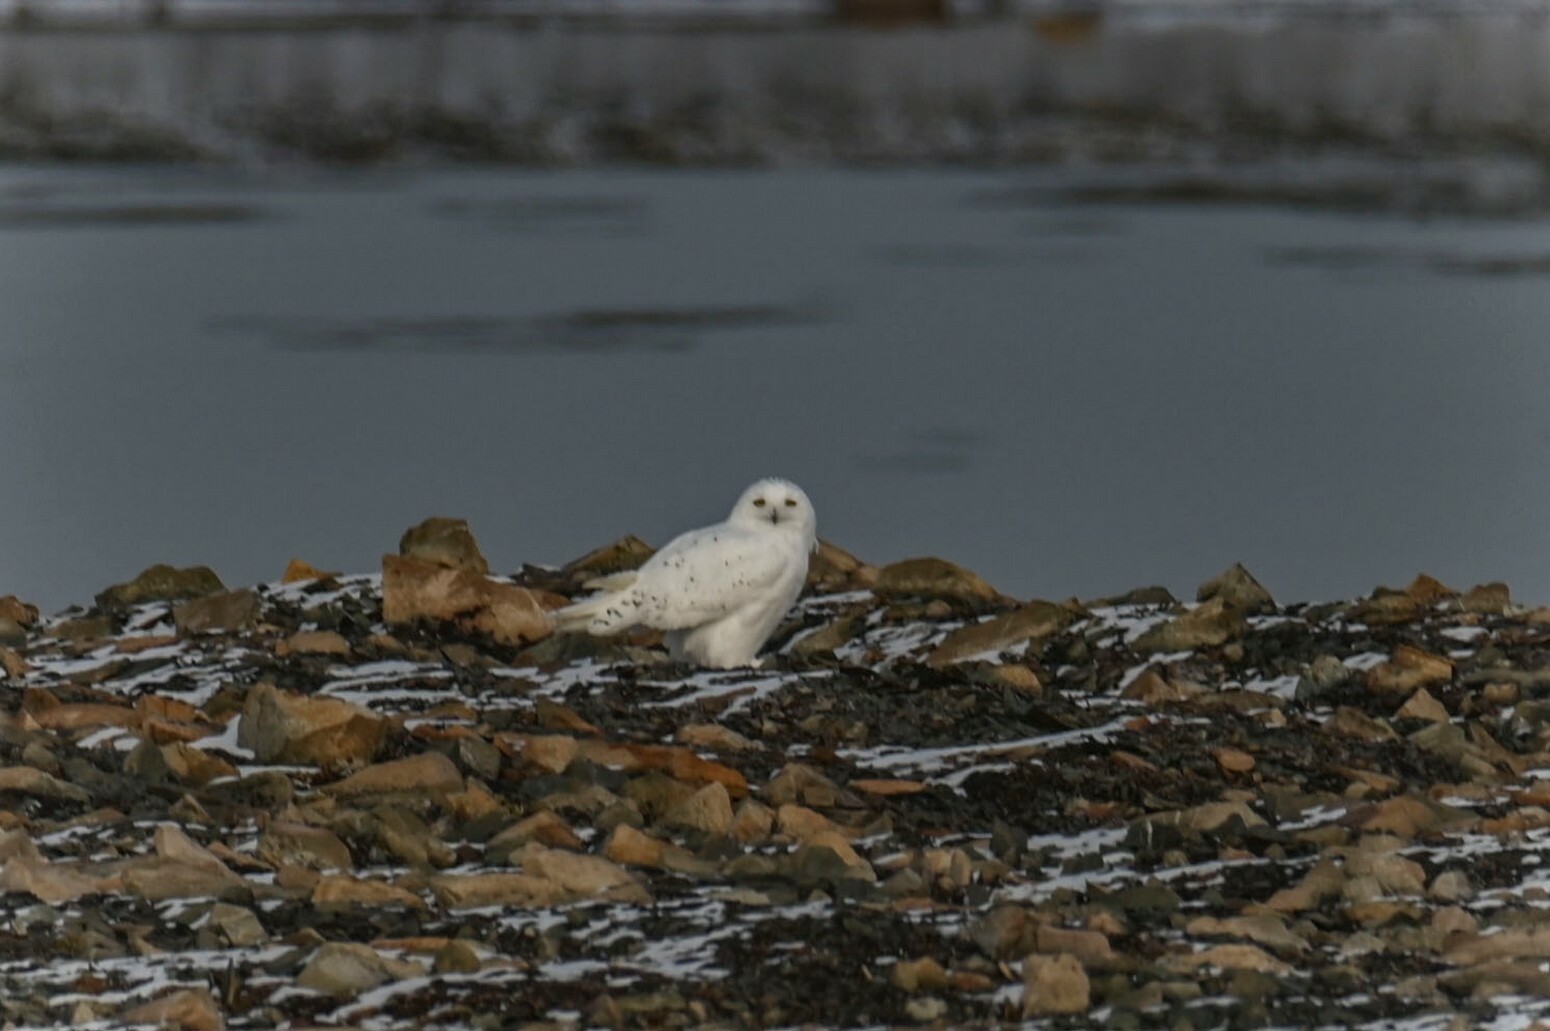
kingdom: Animalia
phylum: Chordata
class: Aves
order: Strigiformes
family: Strigidae
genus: Bubo
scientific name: Bubo scandiacus
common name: Snowy owl
